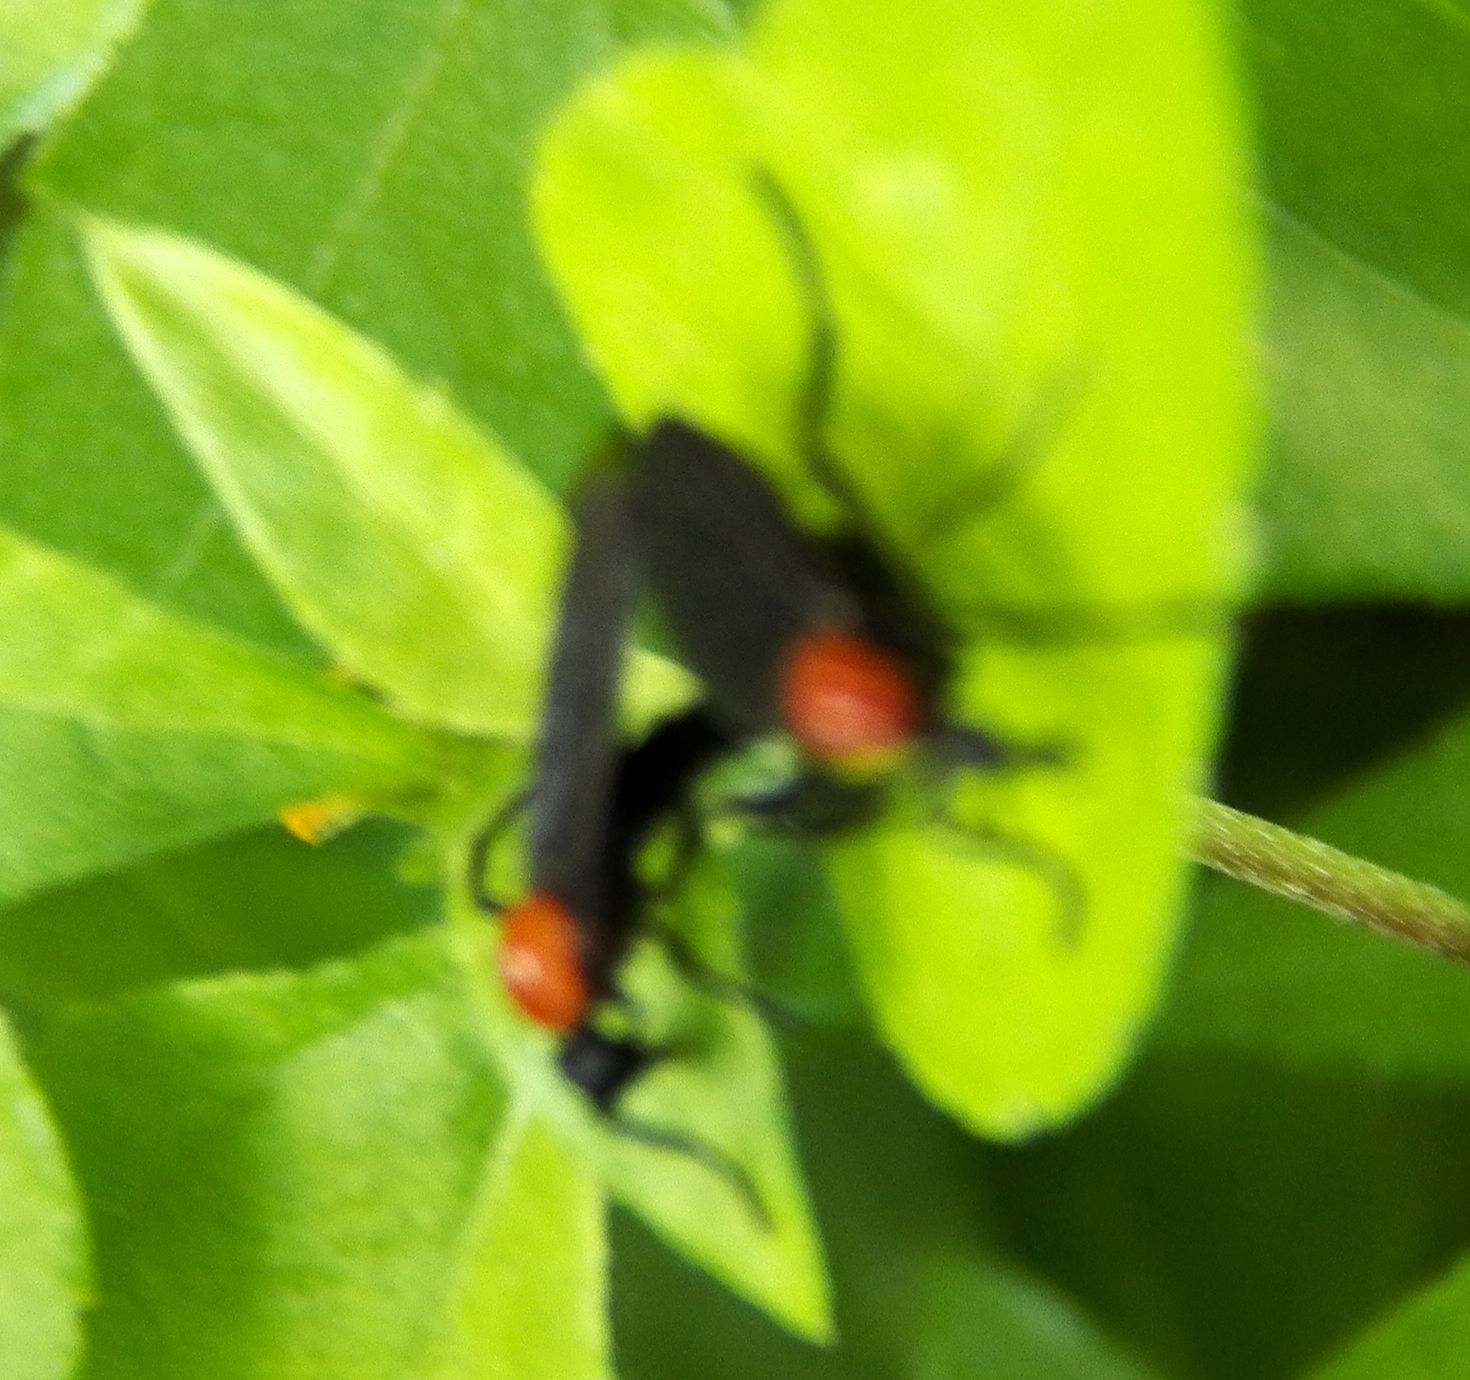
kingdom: Animalia
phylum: Arthropoda
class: Insecta
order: Diptera
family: Bibionidae
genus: Plecia
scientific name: Plecia nearctica
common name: March fly
